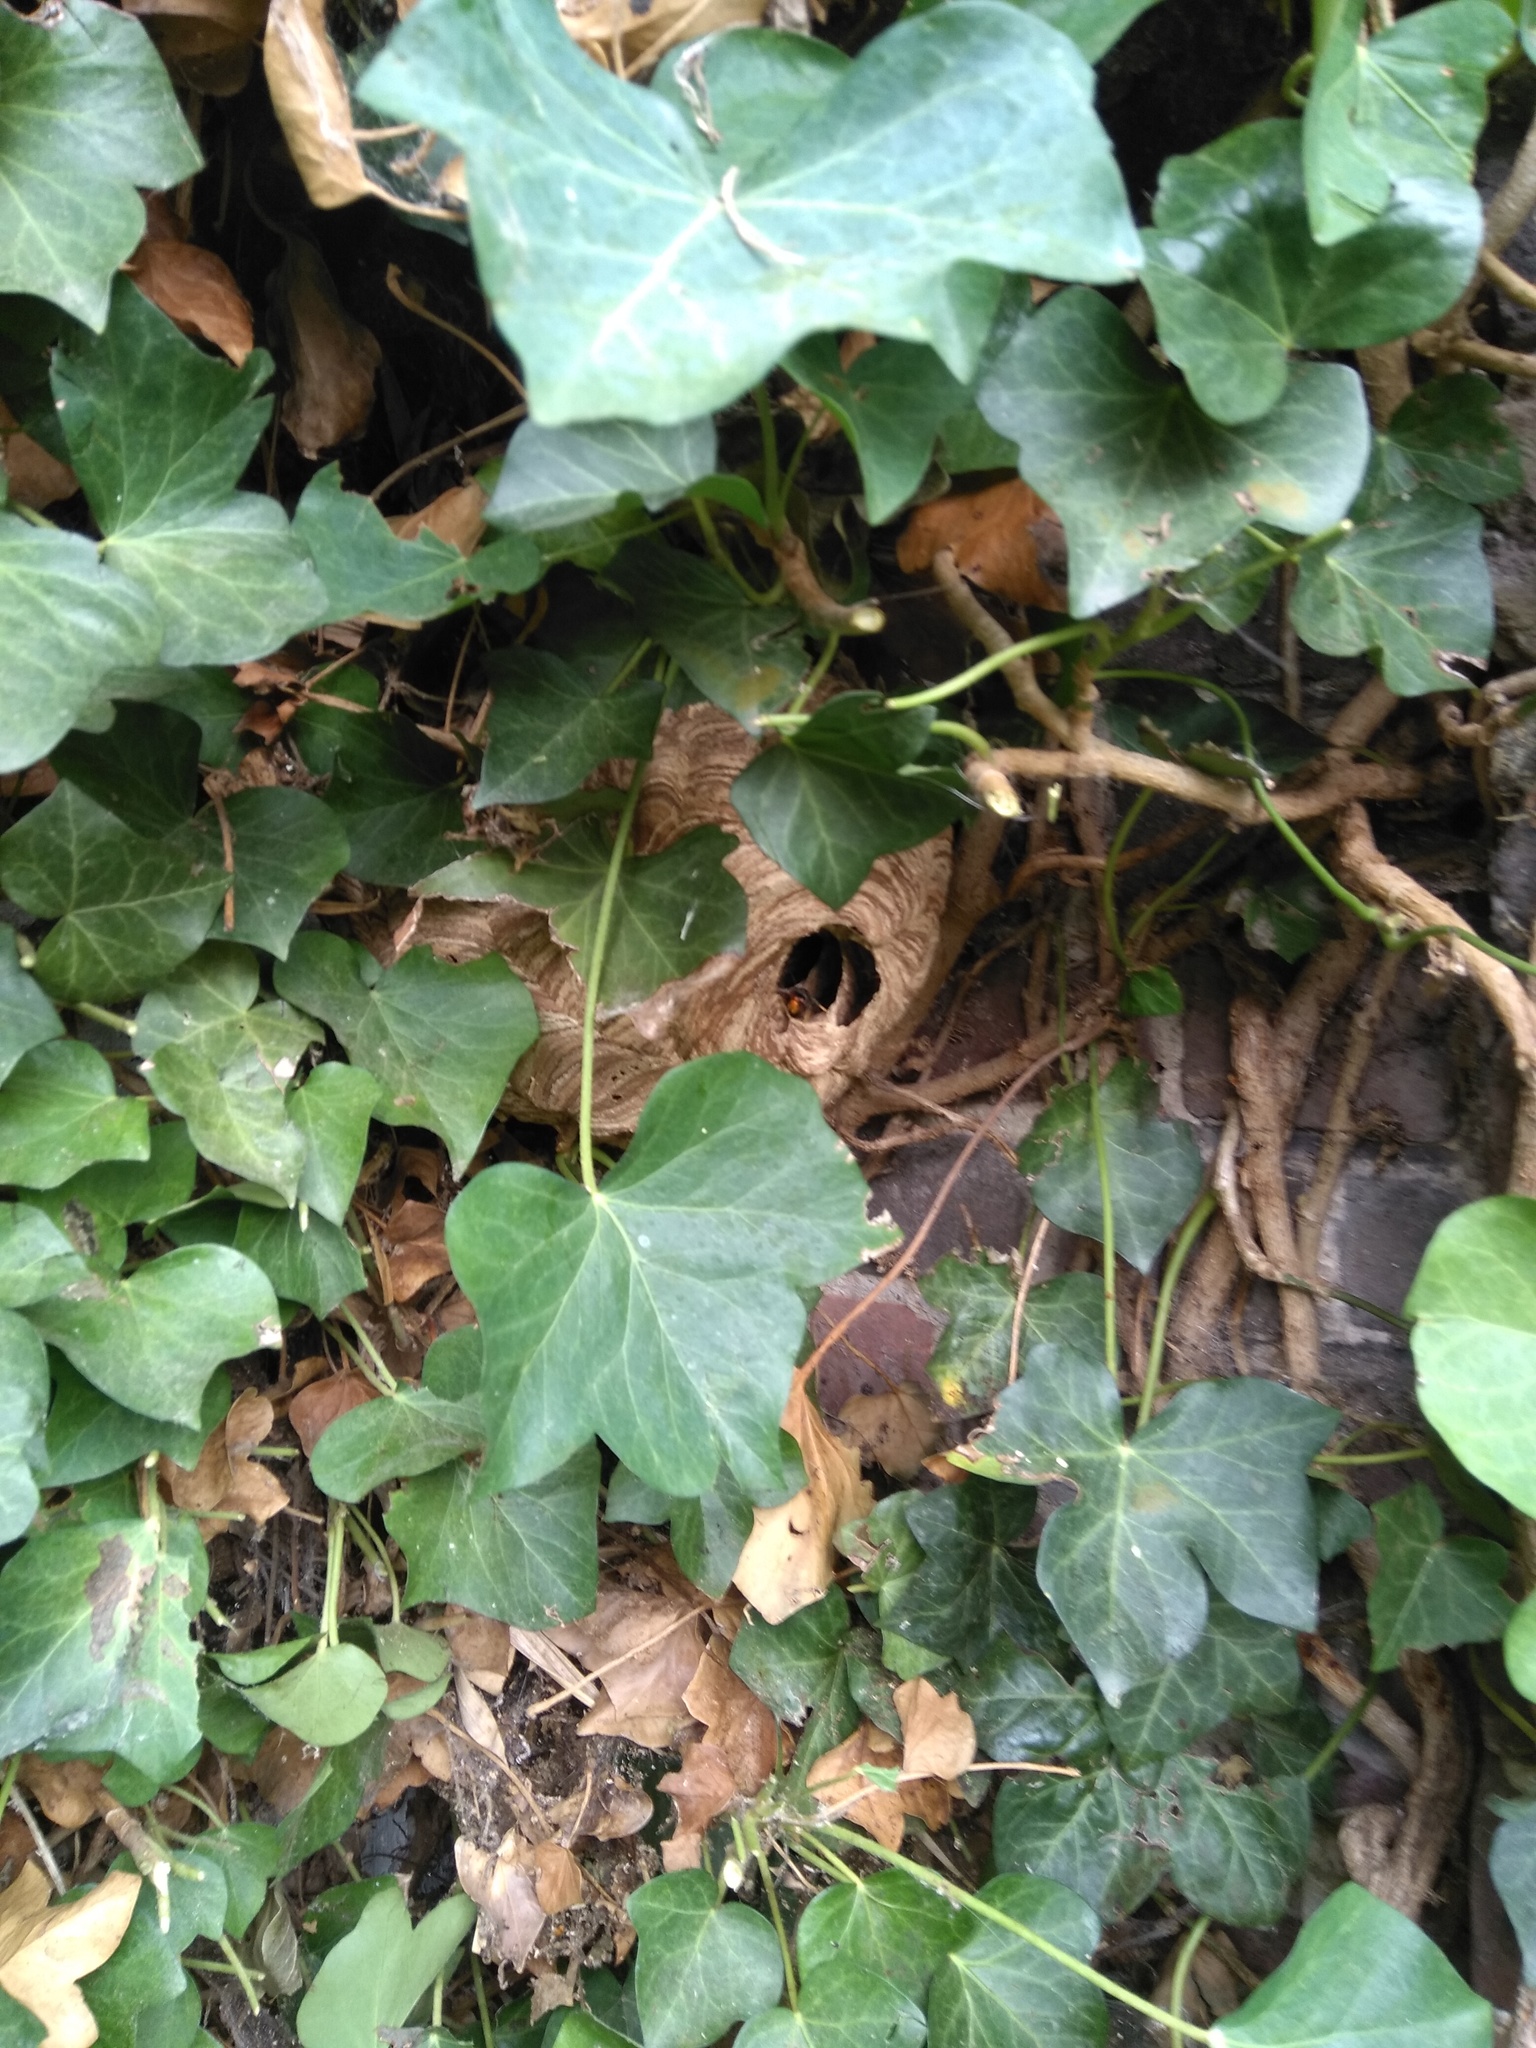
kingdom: Animalia
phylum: Arthropoda
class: Insecta
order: Hymenoptera
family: Vespidae
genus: Vespa
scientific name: Vespa velutina
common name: Asian hornet
